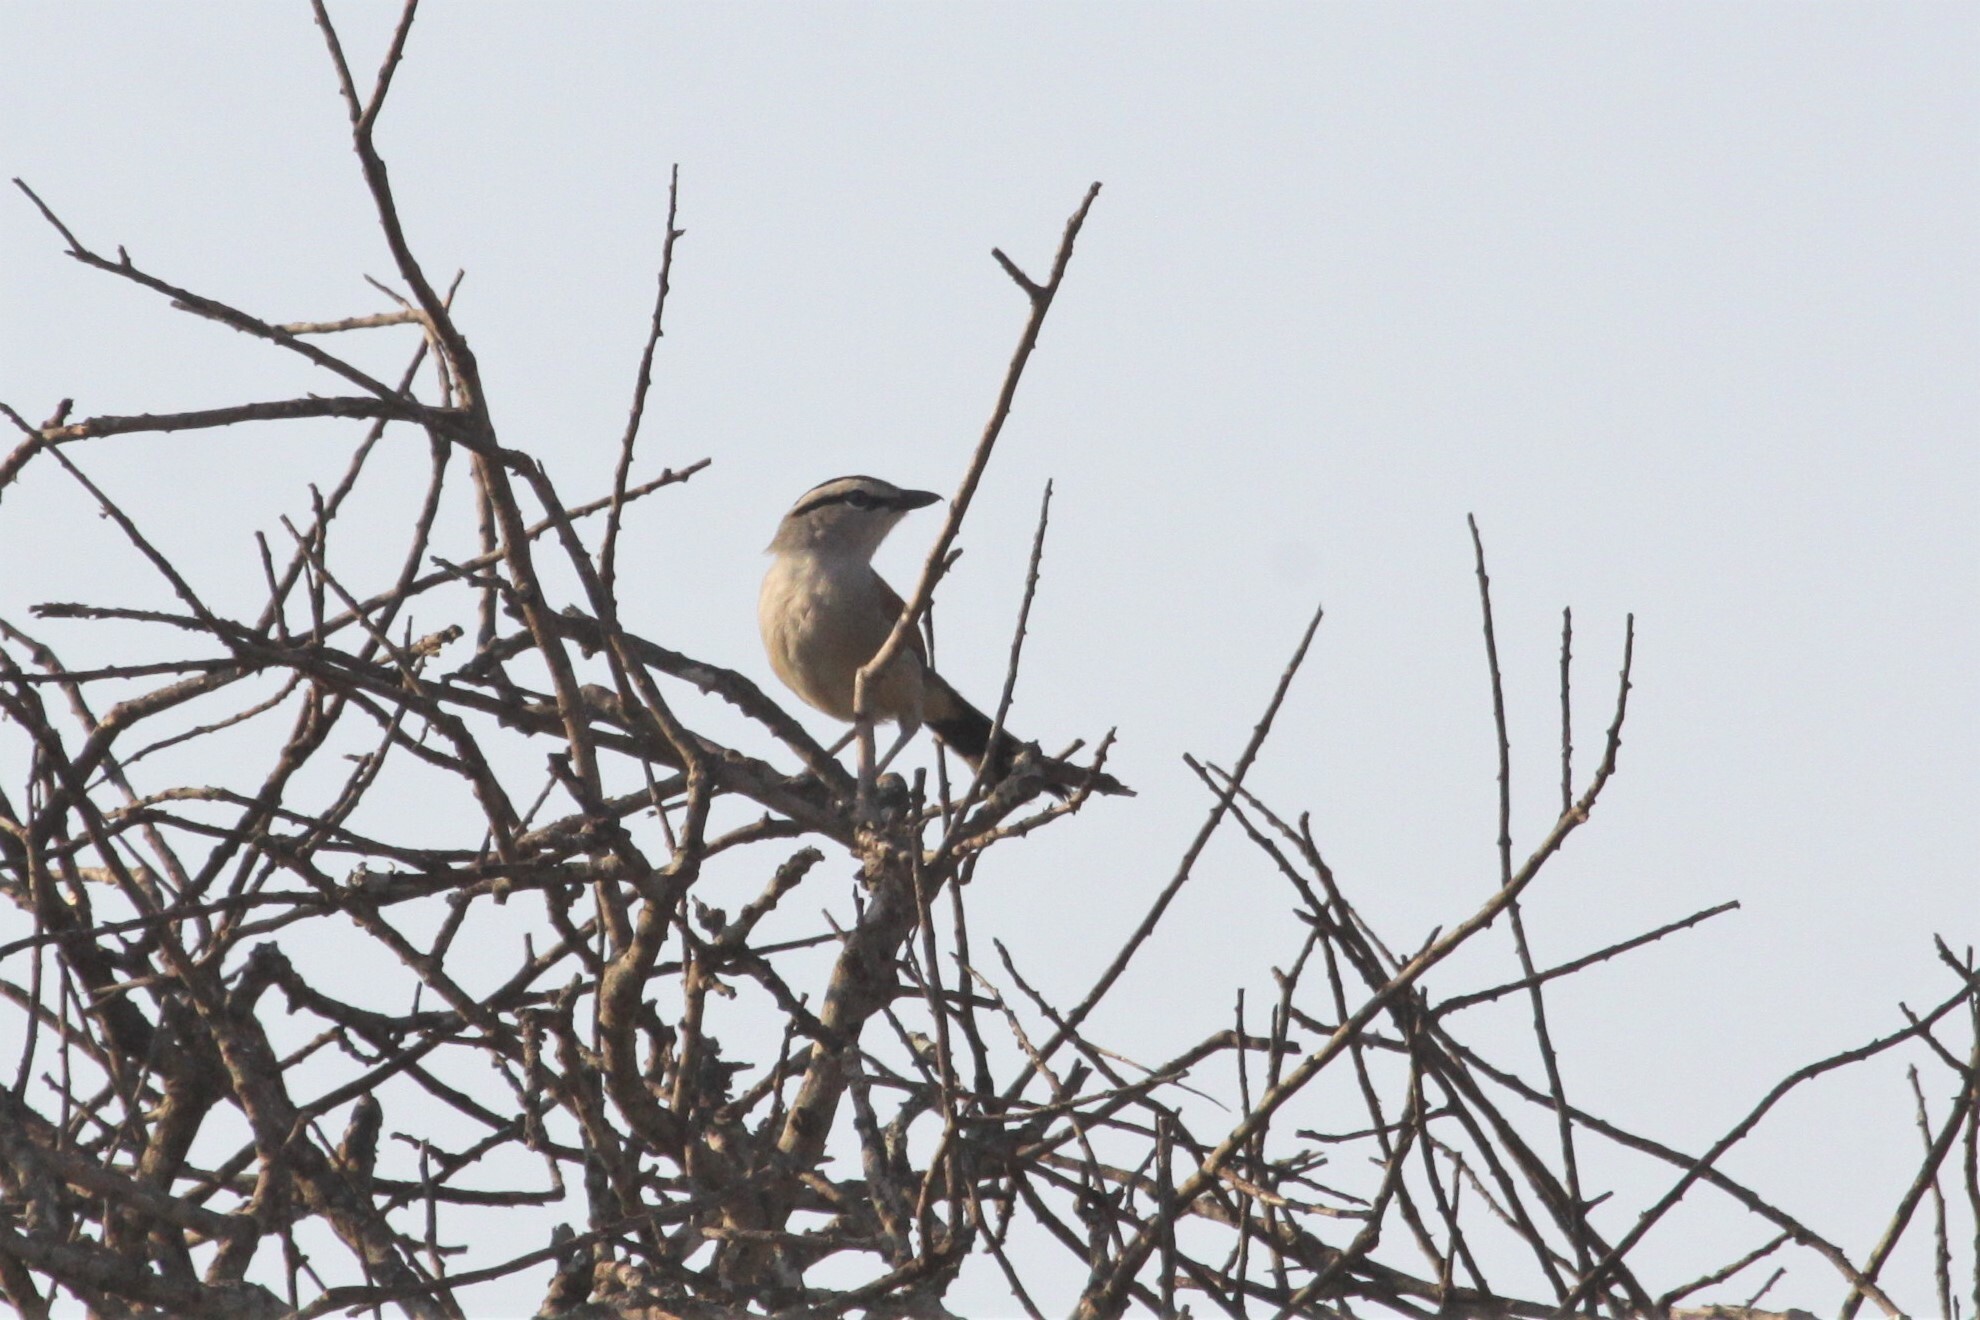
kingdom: Animalia
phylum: Chordata
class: Aves
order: Passeriformes
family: Malaconotidae
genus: Tchagra
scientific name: Tchagra australis
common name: Brown-crowned tchagra
